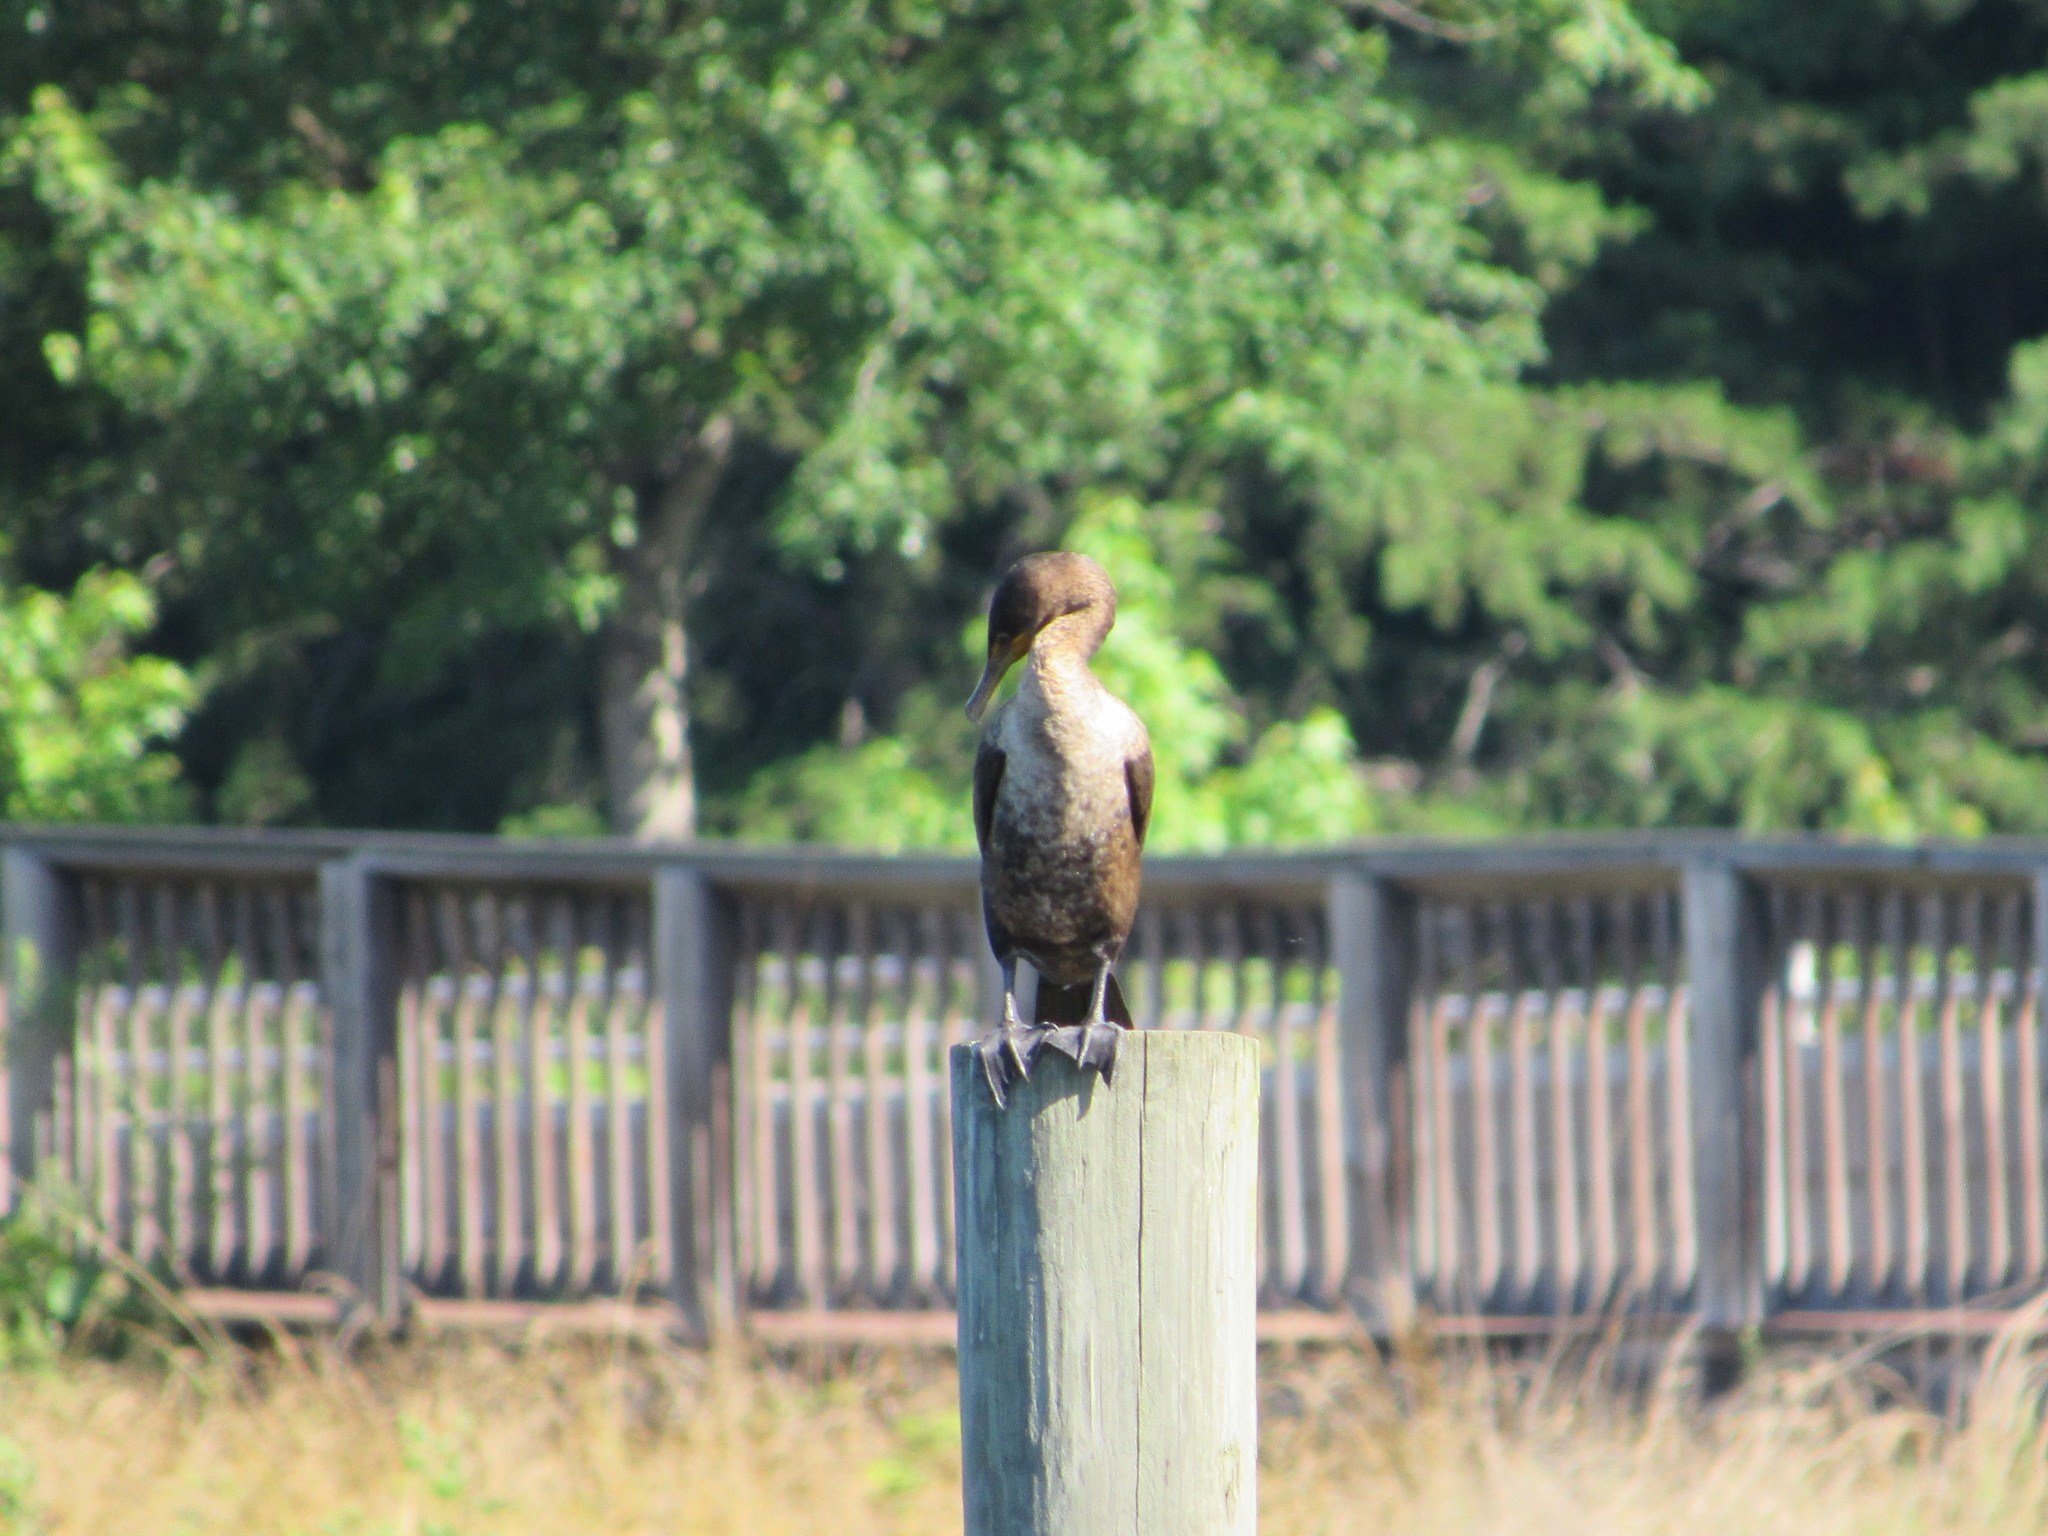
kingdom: Animalia
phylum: Chordata
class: Aves
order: Suliformes
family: Phalacrocoracidae
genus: Phalacrocorax
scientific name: Phalacrocorax auritus
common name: Double-crested cormorant
